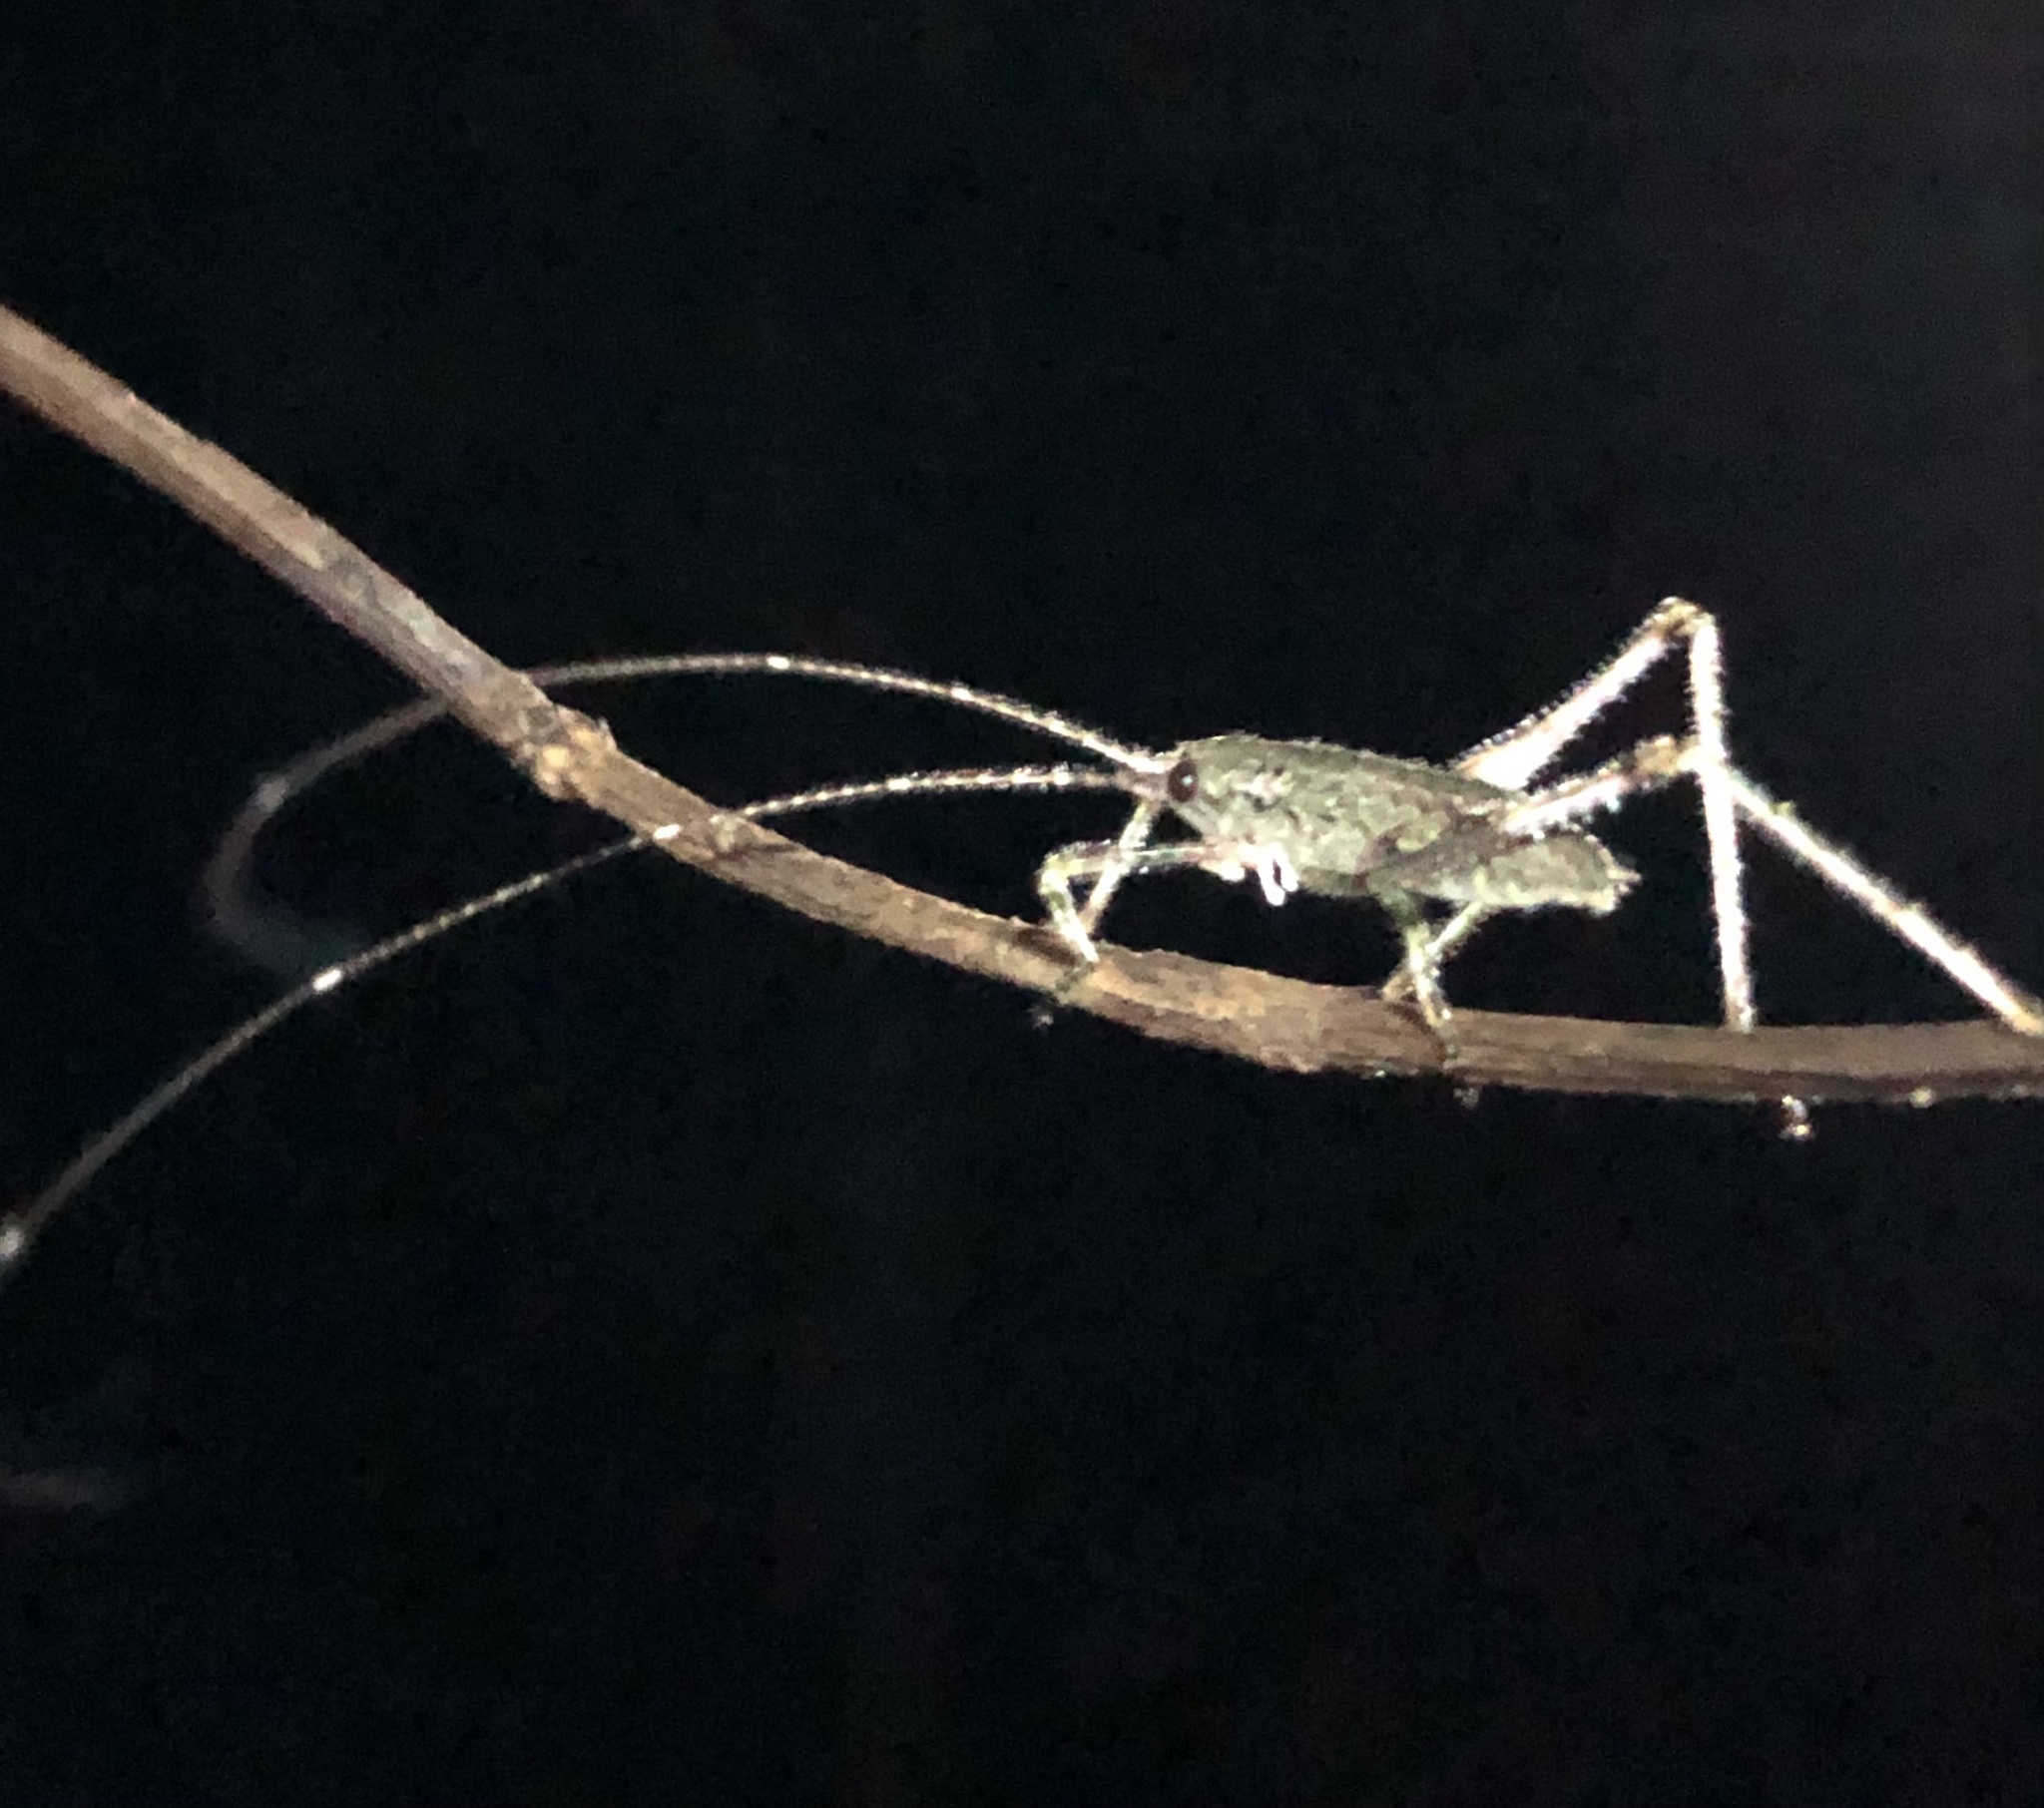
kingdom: Animalia
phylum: Arthropoda
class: Insecta
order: Orthoptera
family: Tettigoniidae
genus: Phricta
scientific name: Phricta spinosa
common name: Giant spiny forest katydid
